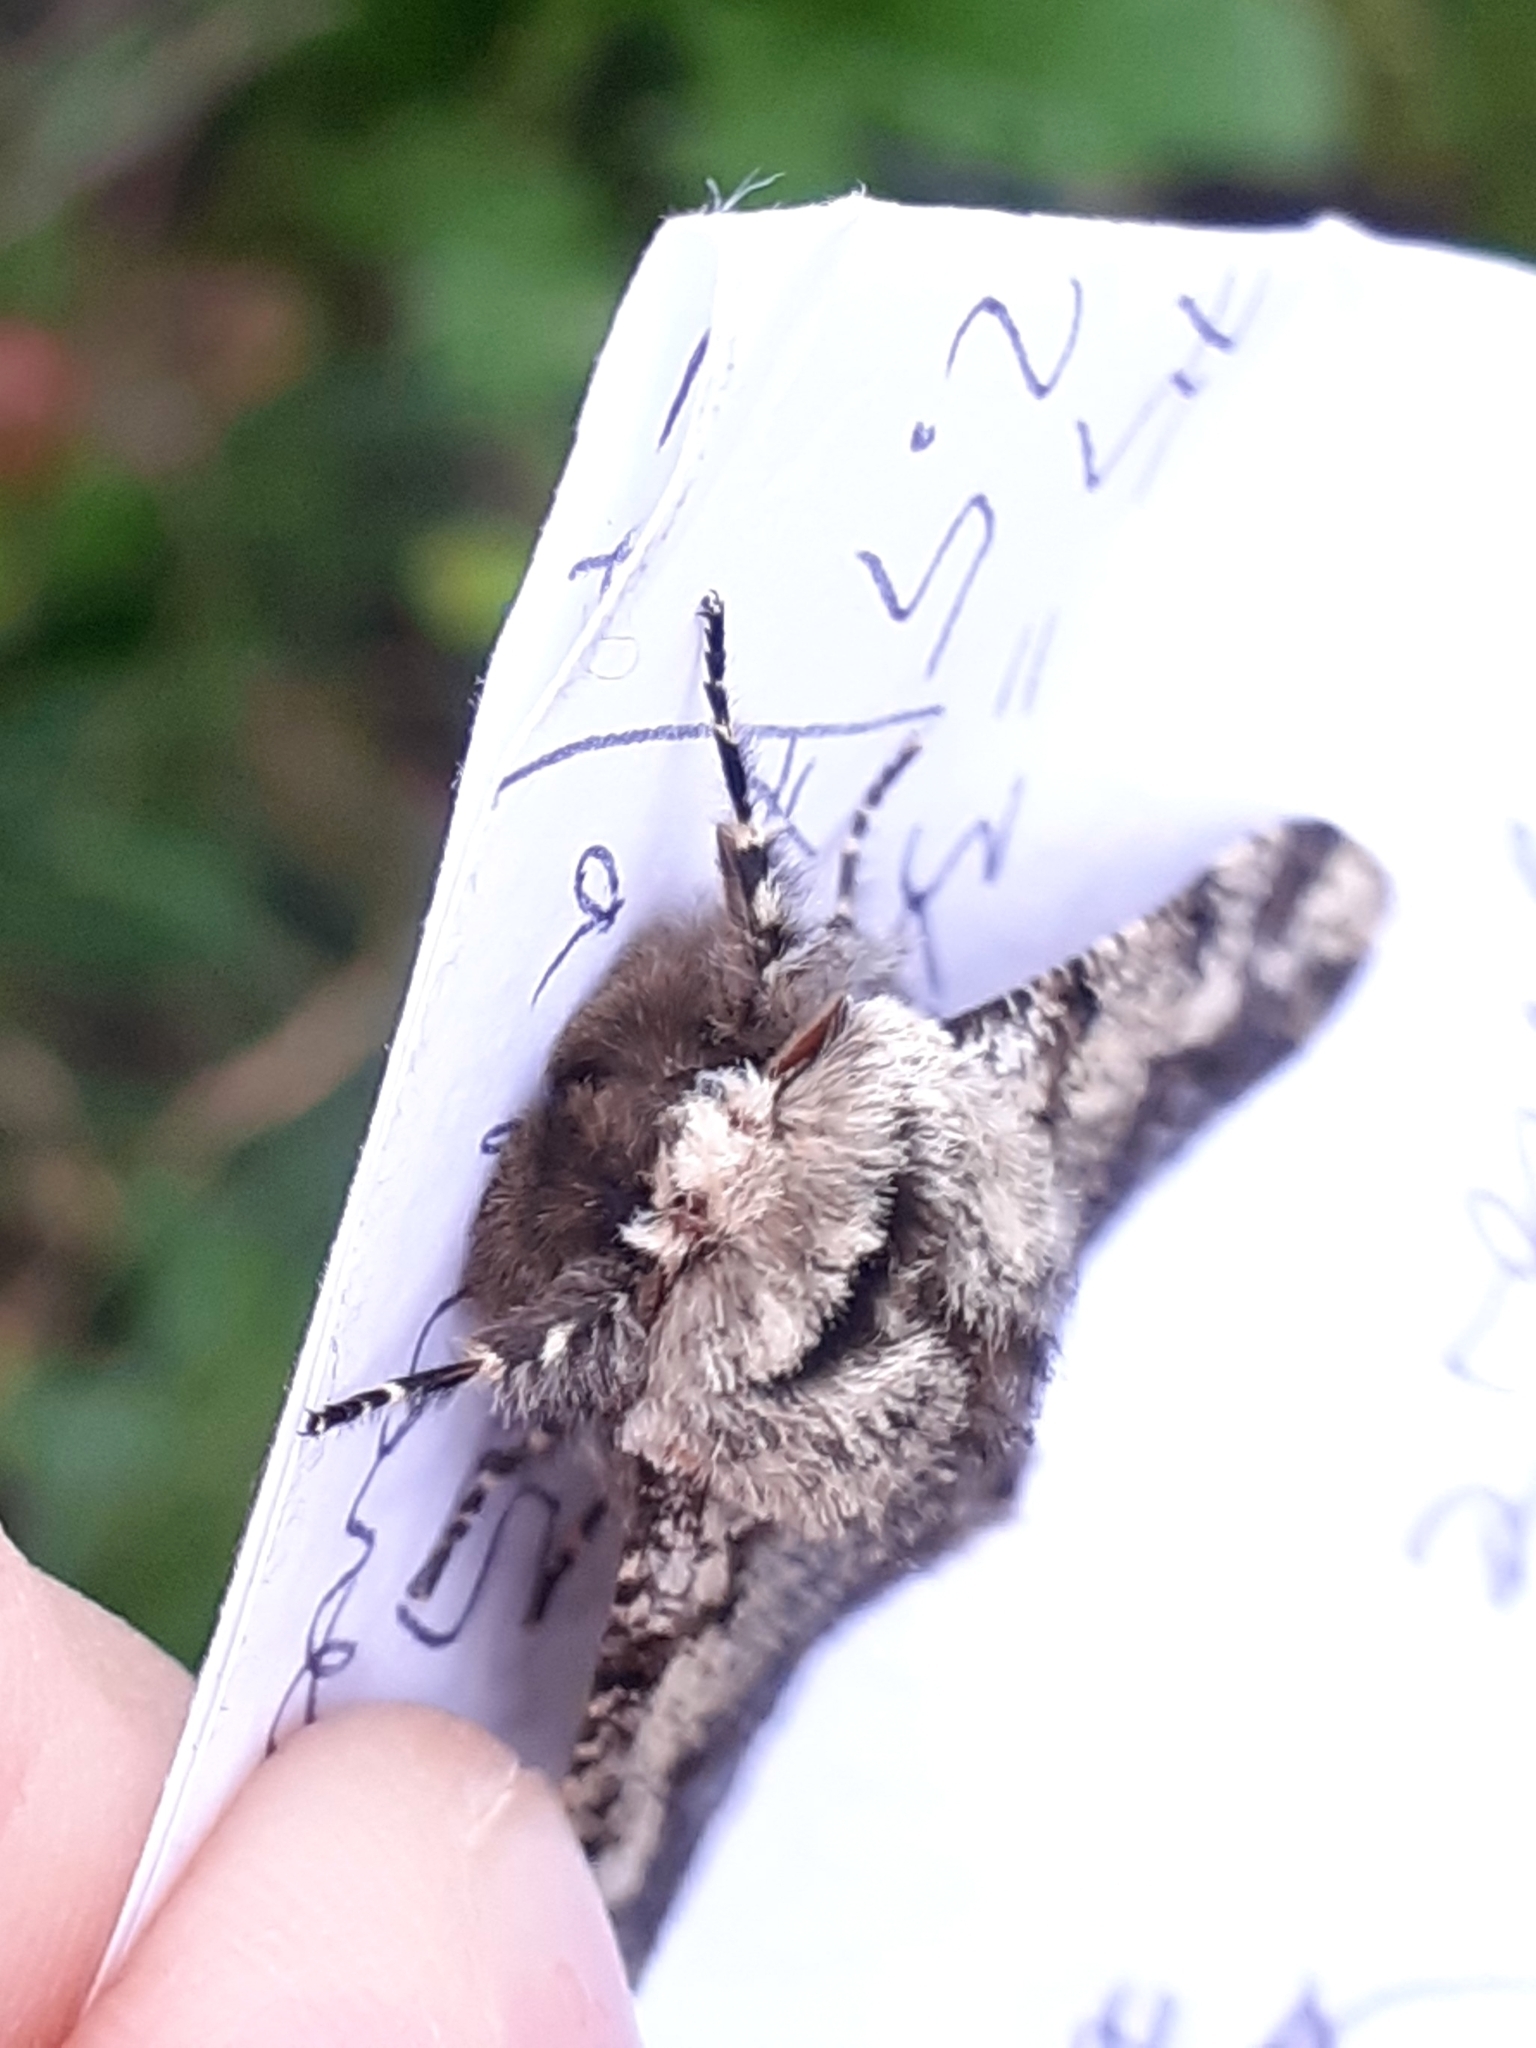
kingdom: Animalia
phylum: Arthropoda
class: Insecta
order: Lepidoptera
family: Geometridae
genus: Biston
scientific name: Biston strataria
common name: Oak beauty
